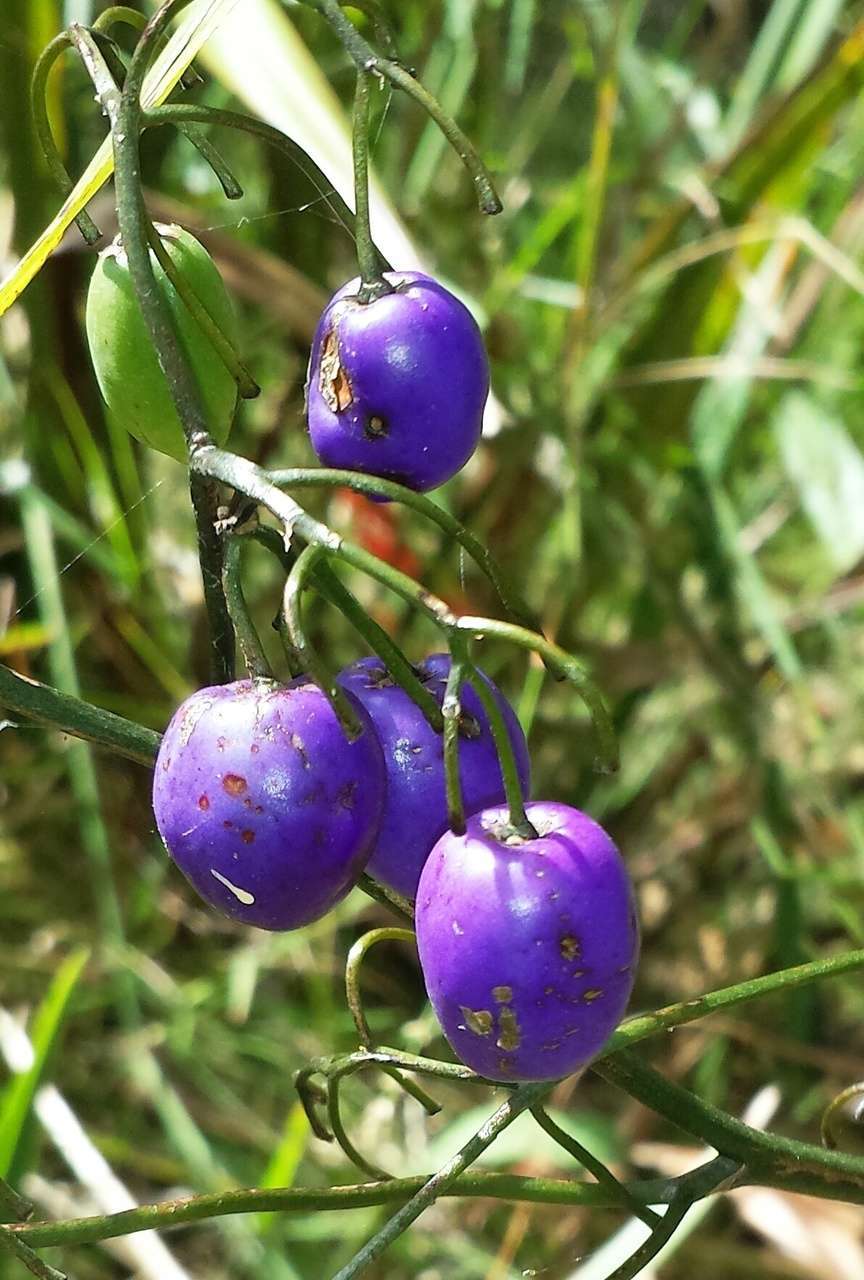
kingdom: Plantae
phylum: Tracheophyta
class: Liliopsida
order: Asparagales
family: Asphodelaceae
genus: Dianella
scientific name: Dianella tasmanica
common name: Tasman flax-lily
